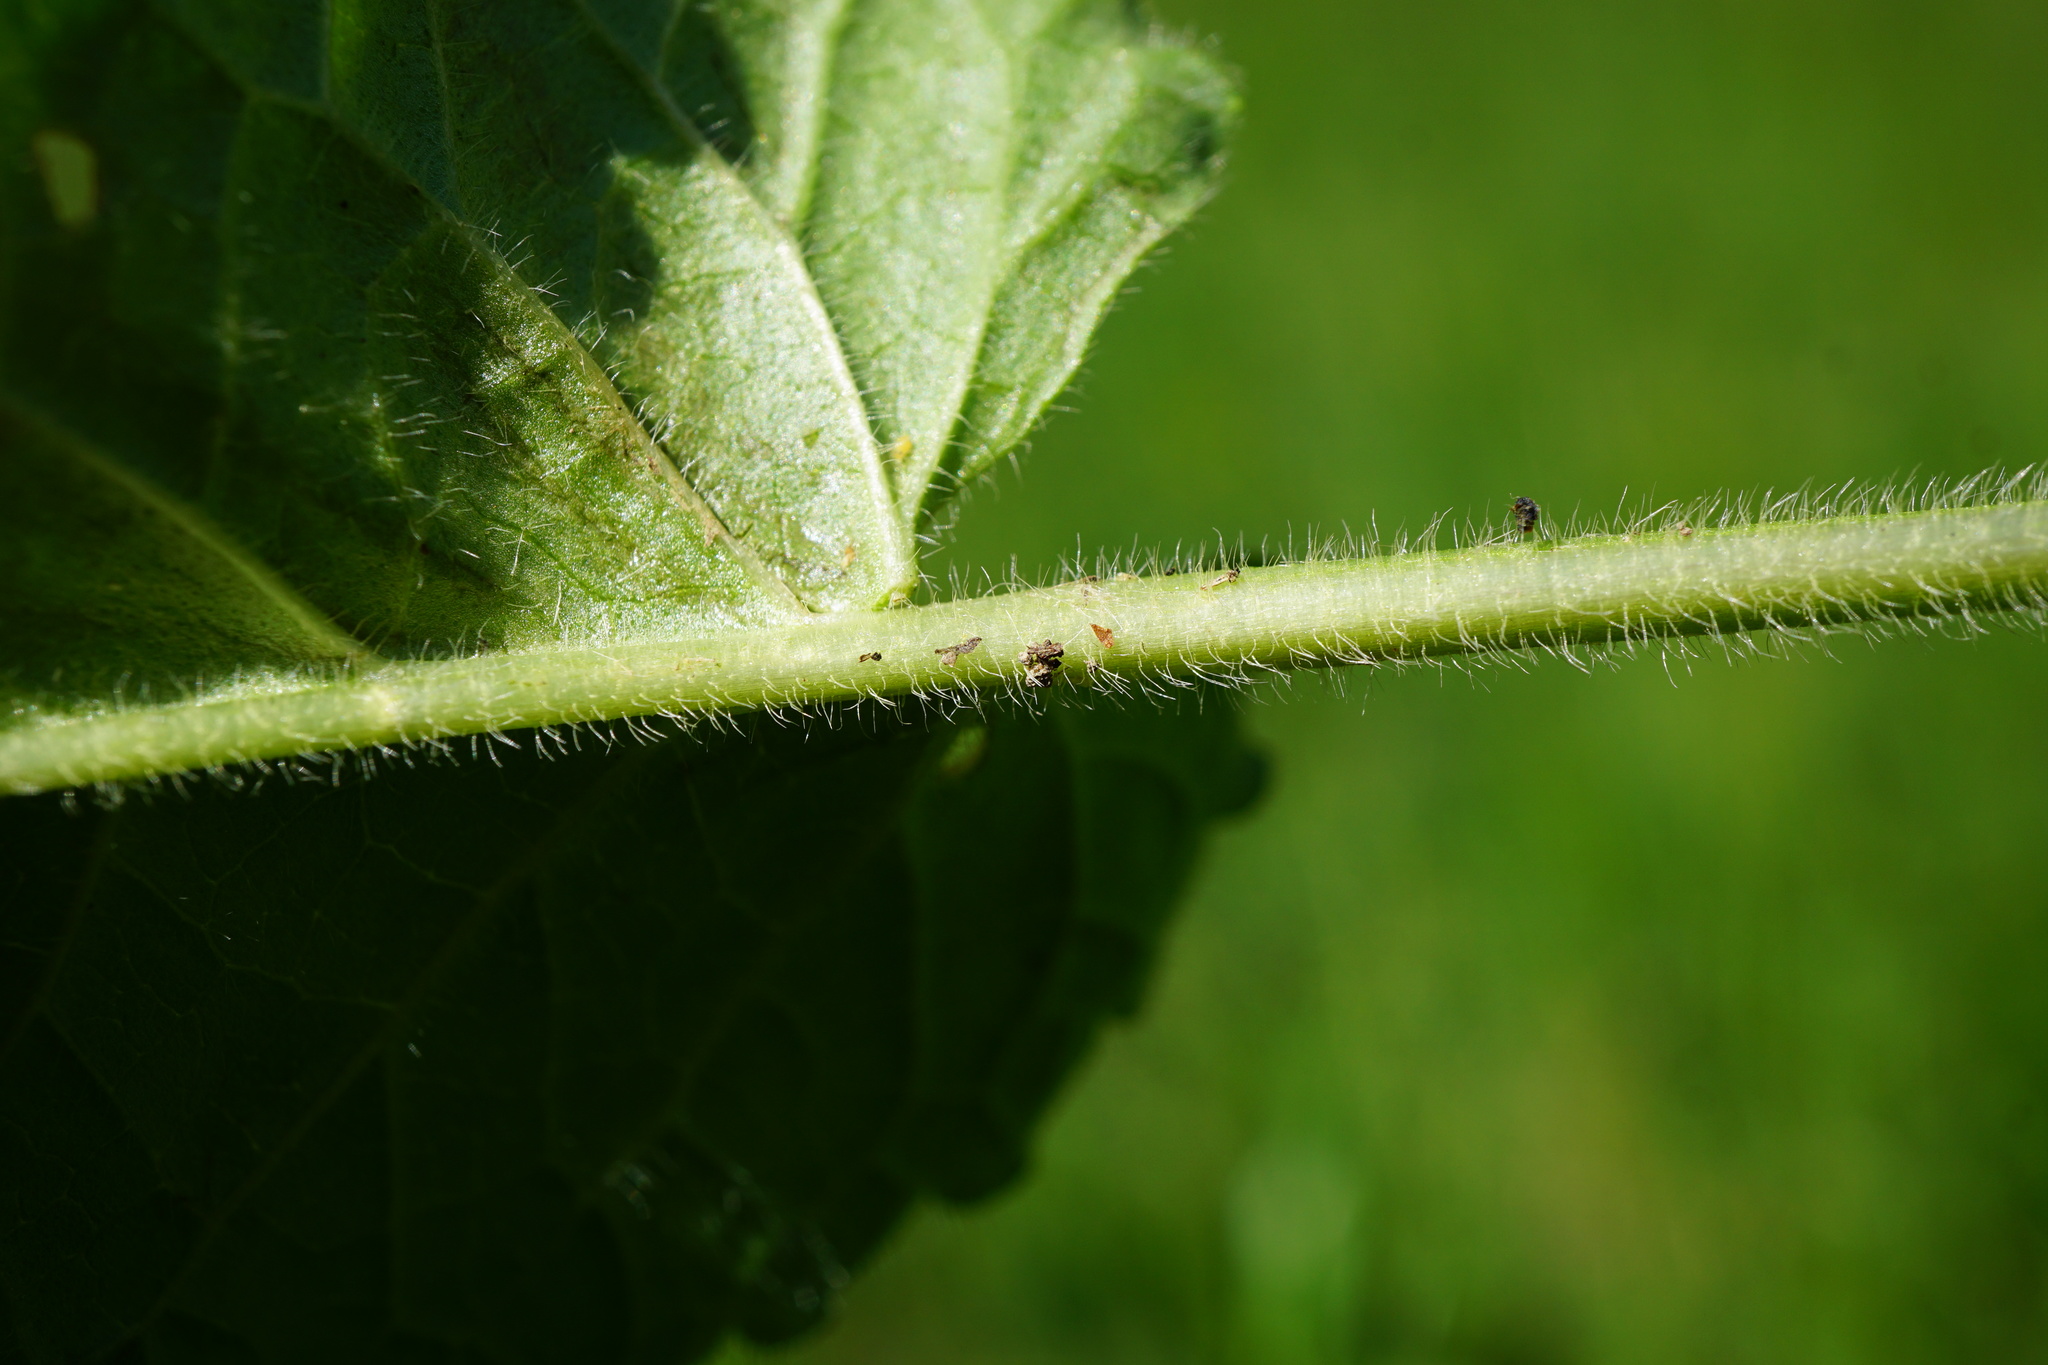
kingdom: Plantae
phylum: Tracheophyta
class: Magnoliopsida
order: Lamiales
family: Lamiaceae
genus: Betonica
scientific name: Betonica officinalis
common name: Bishop's-wort
